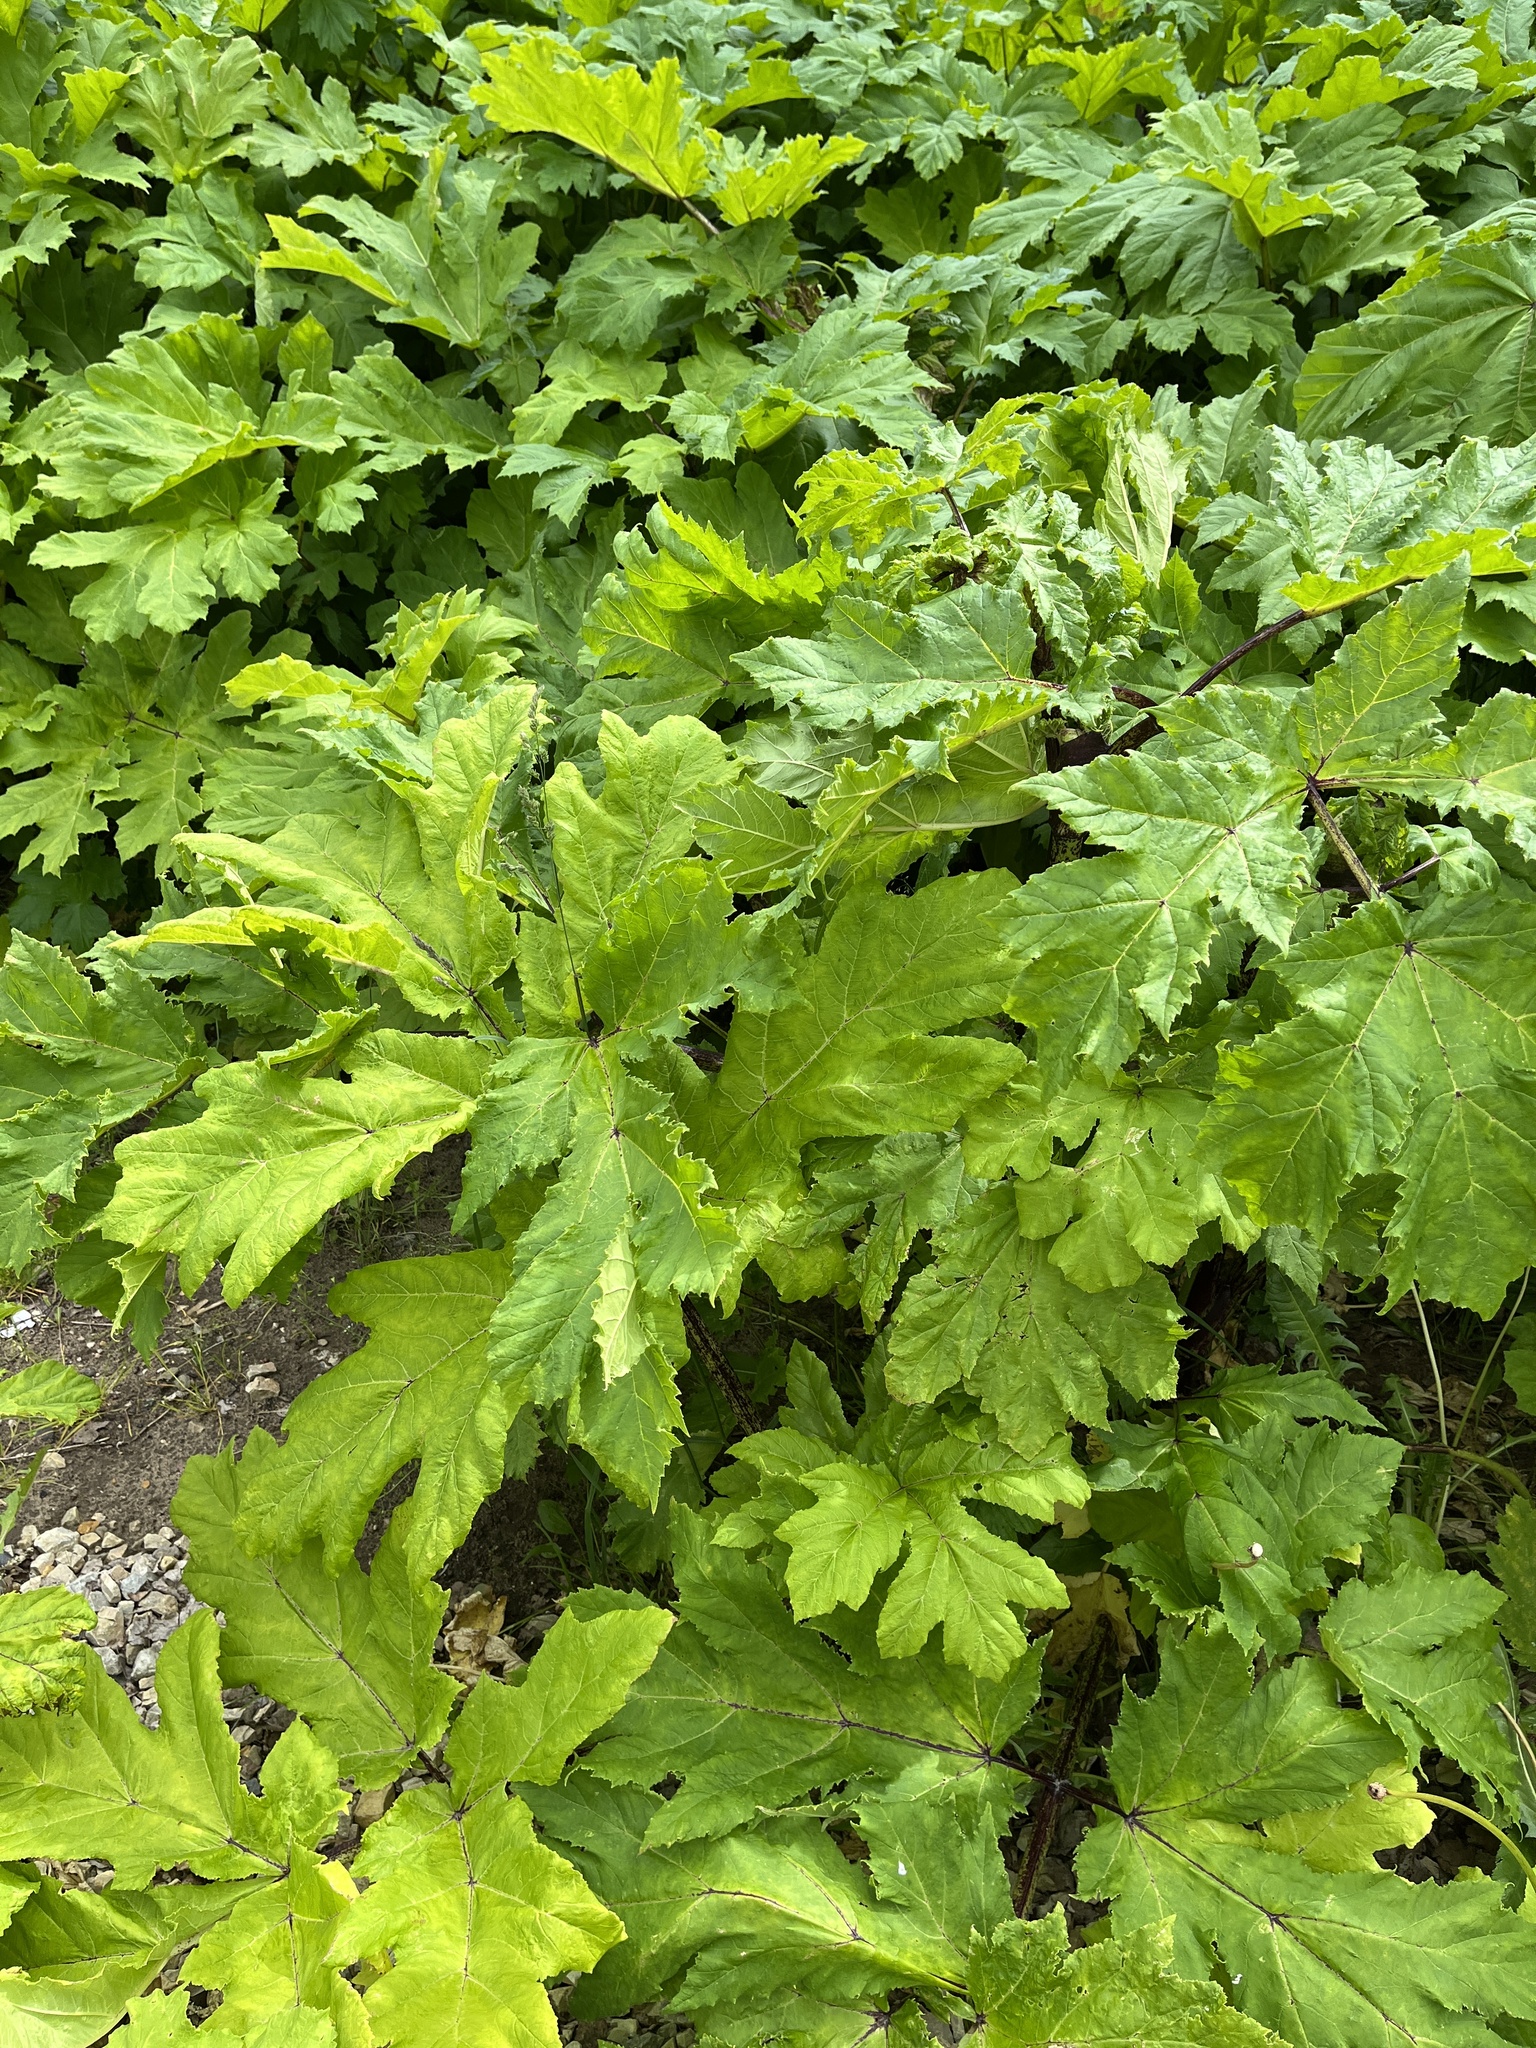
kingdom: Plantae
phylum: Tracheophyta
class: Magnoliopsida
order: Apiales
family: Apiaceae
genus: Heracleum
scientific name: Heracleum sosnowskyi
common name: Sosnowsky's hogweed
